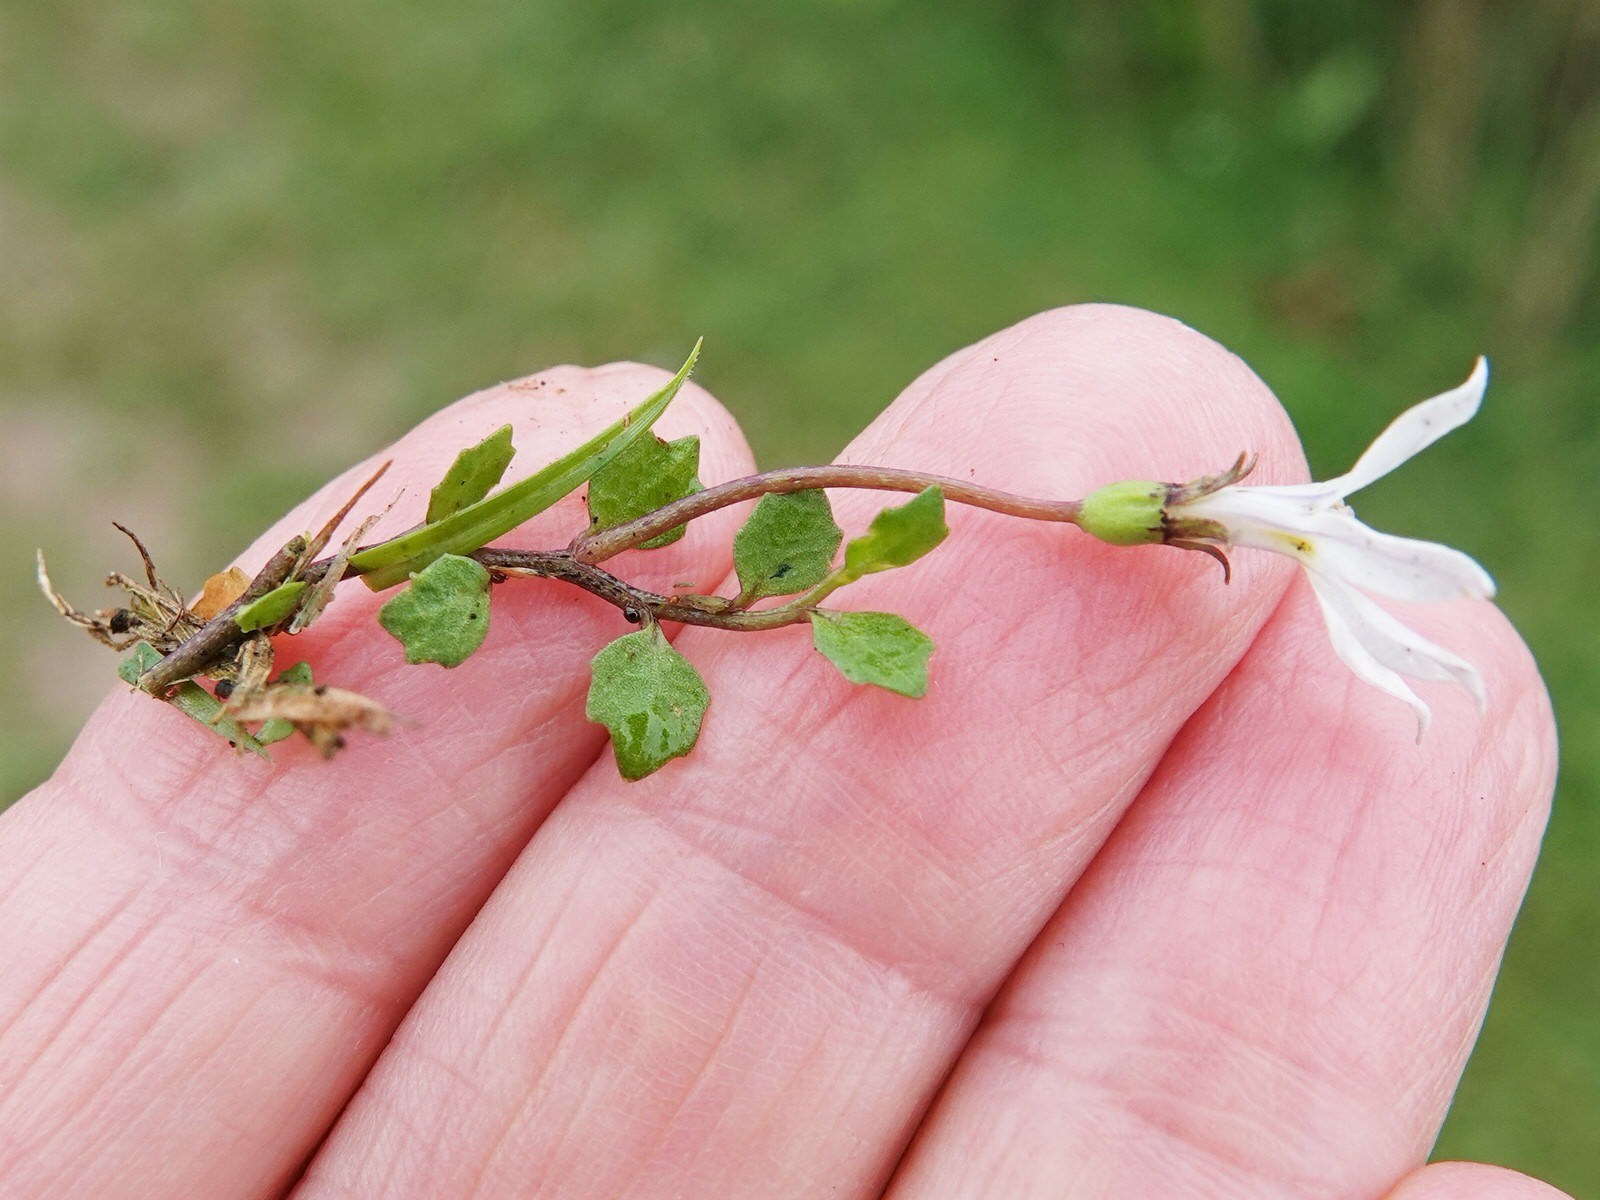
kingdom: Plantae
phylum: Tracheophyta
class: Magnoliopsida
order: Asterales
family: Campanulaceae
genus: Lobelia
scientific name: Lobelia angulata
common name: Lawn lobelia
